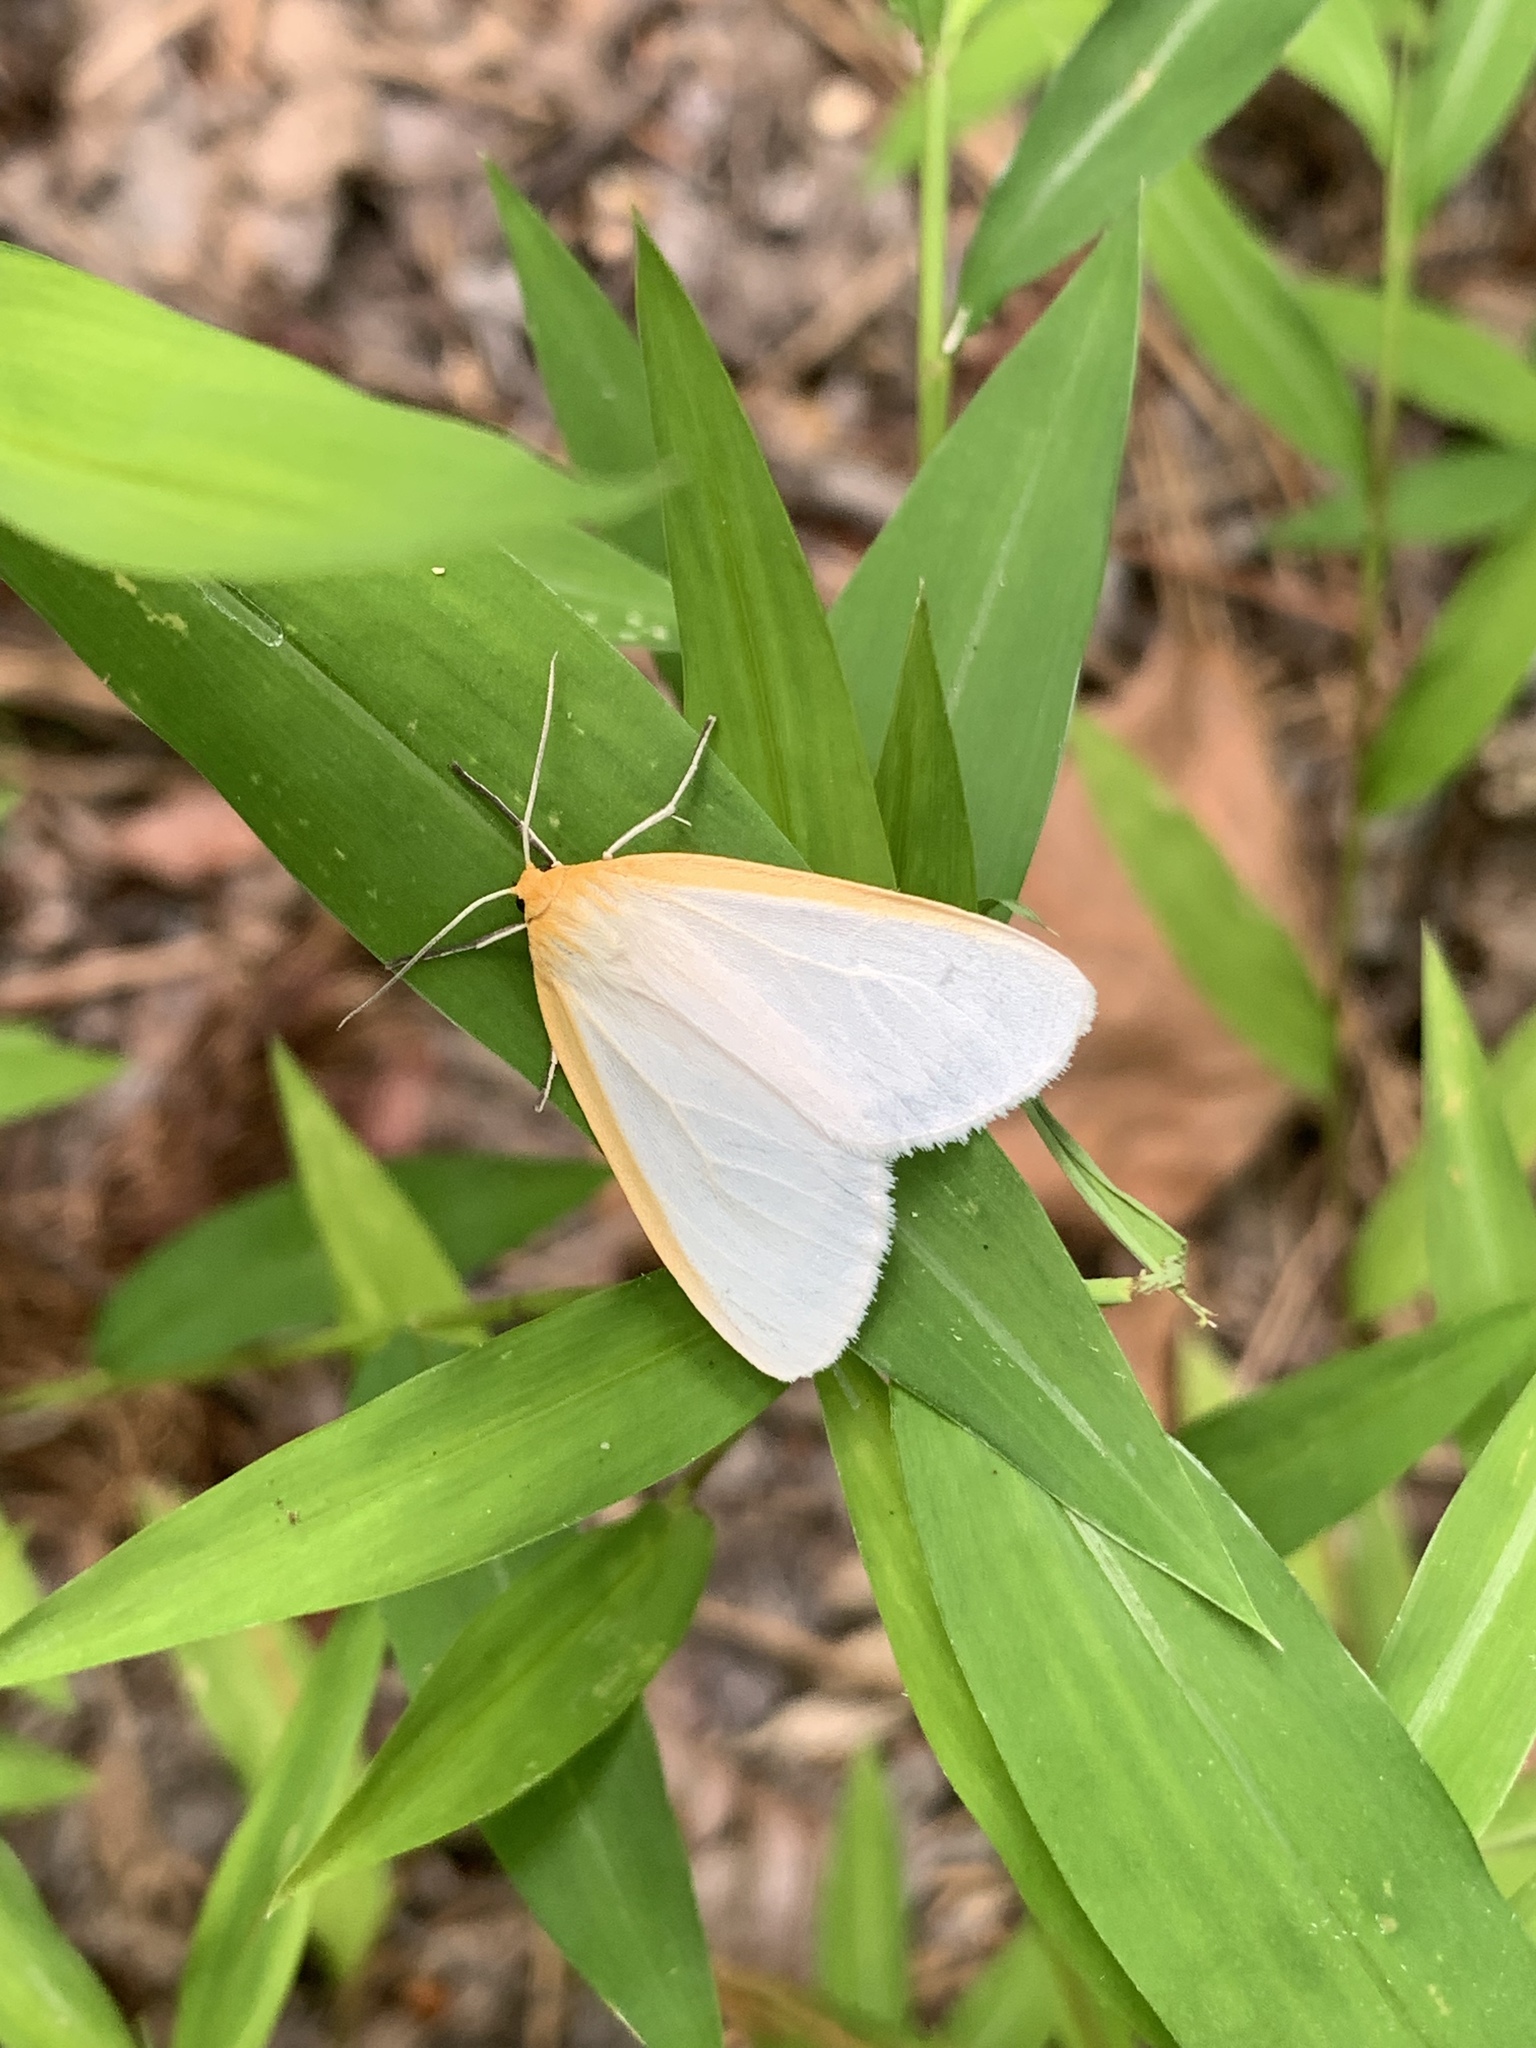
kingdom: Animalia
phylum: Arthropoda
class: Insecta
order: Lepidoptera
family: Erebidae
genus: Cycnia
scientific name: Cycnia tenera
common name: Delicate cycnia moth
